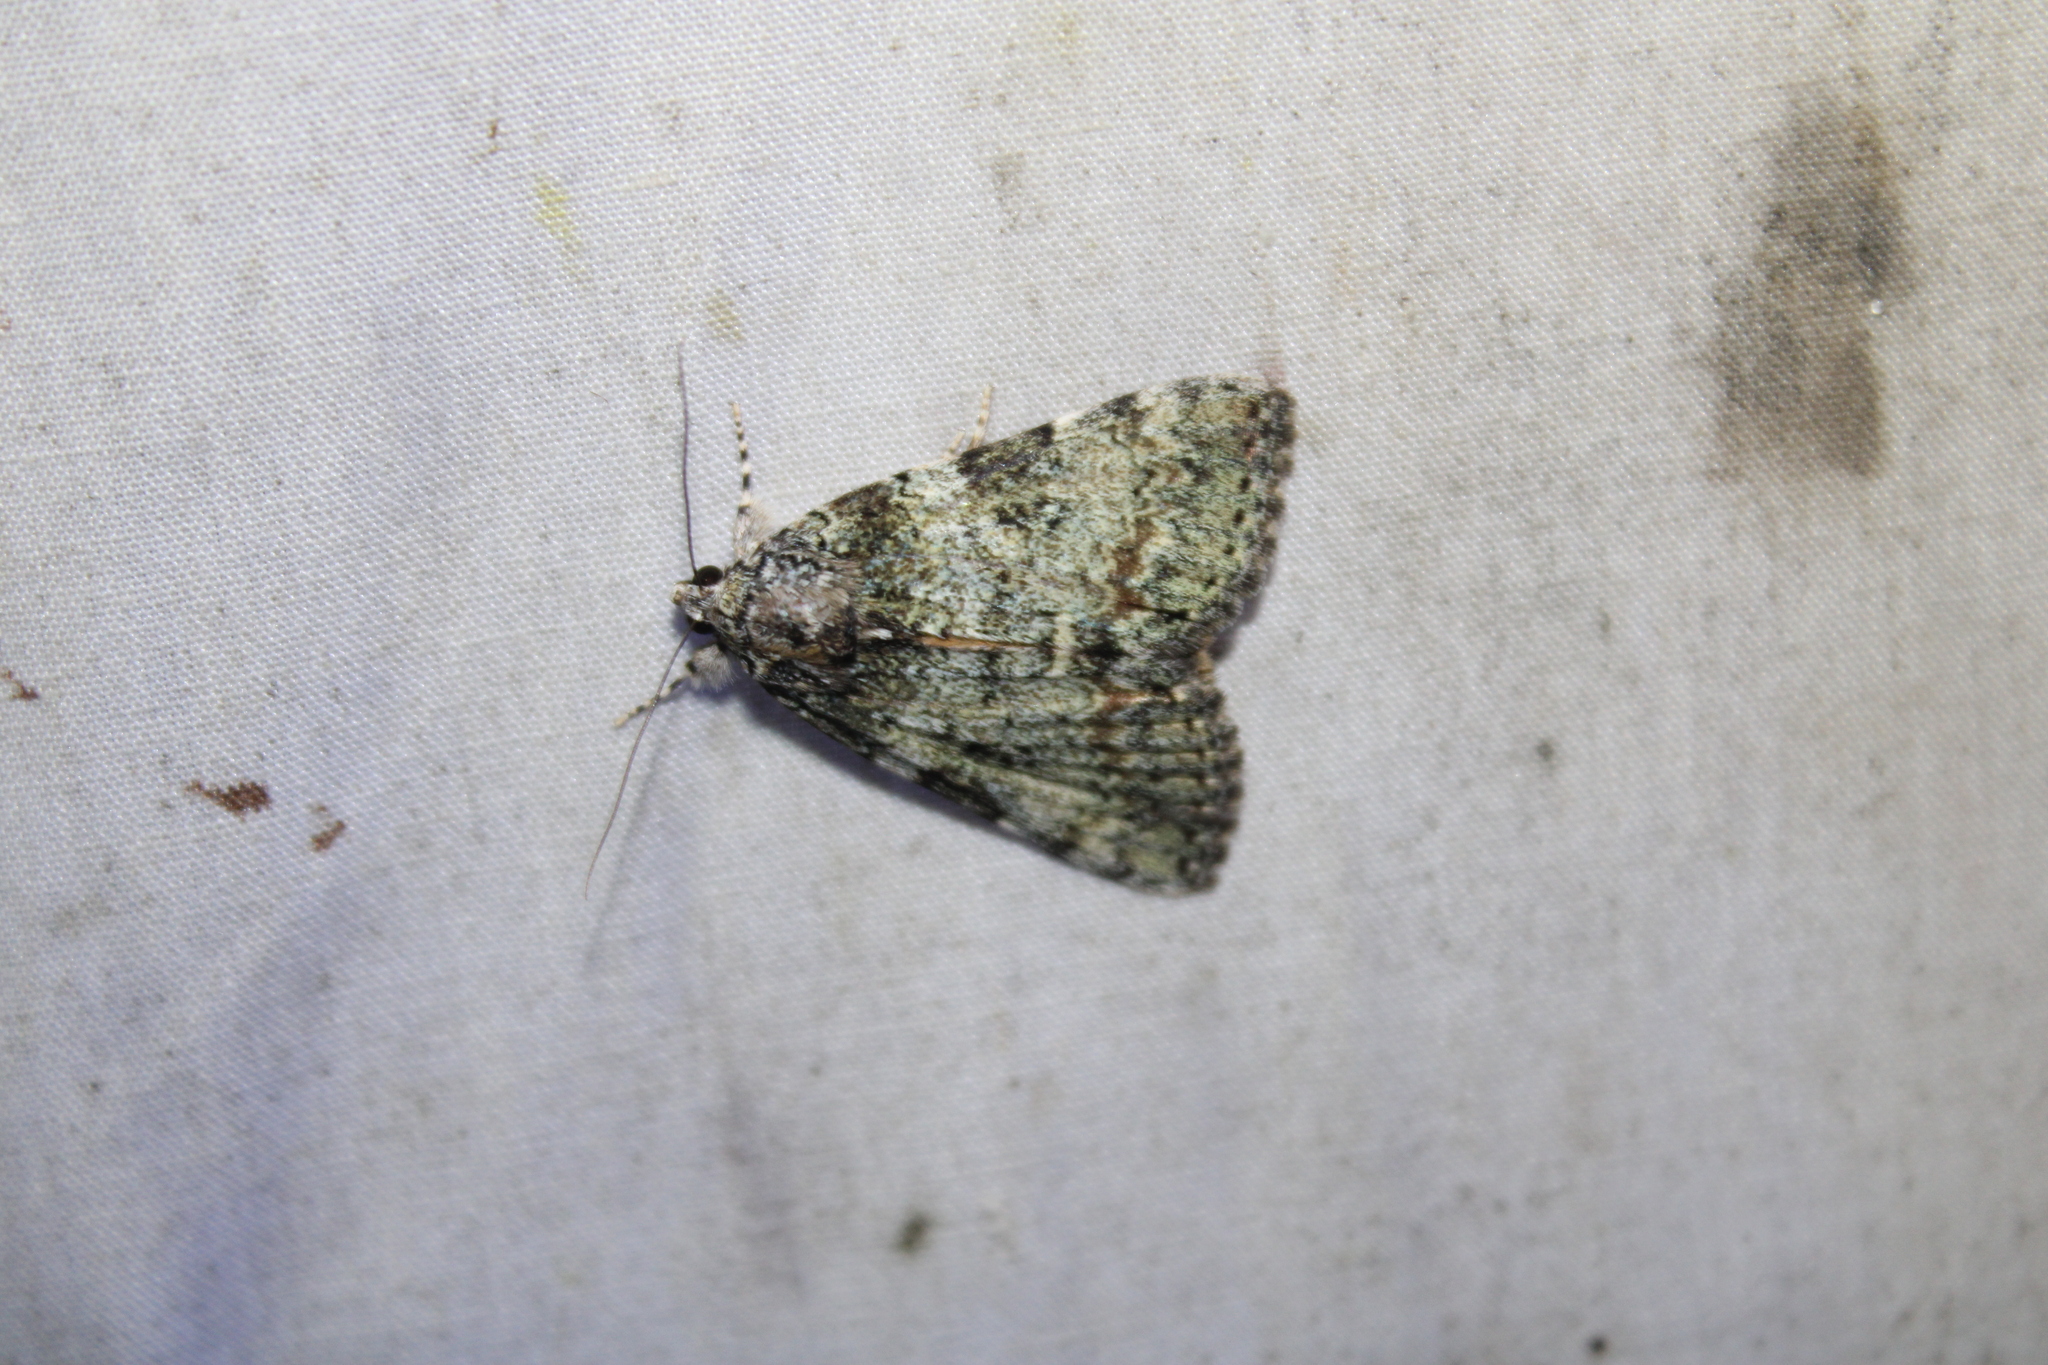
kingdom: Animalia
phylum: Arthropoda
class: Insecta
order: Lepidoptera
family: Erebidae
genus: Catocala
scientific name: Catocala connubialis
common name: Connubial underwing
